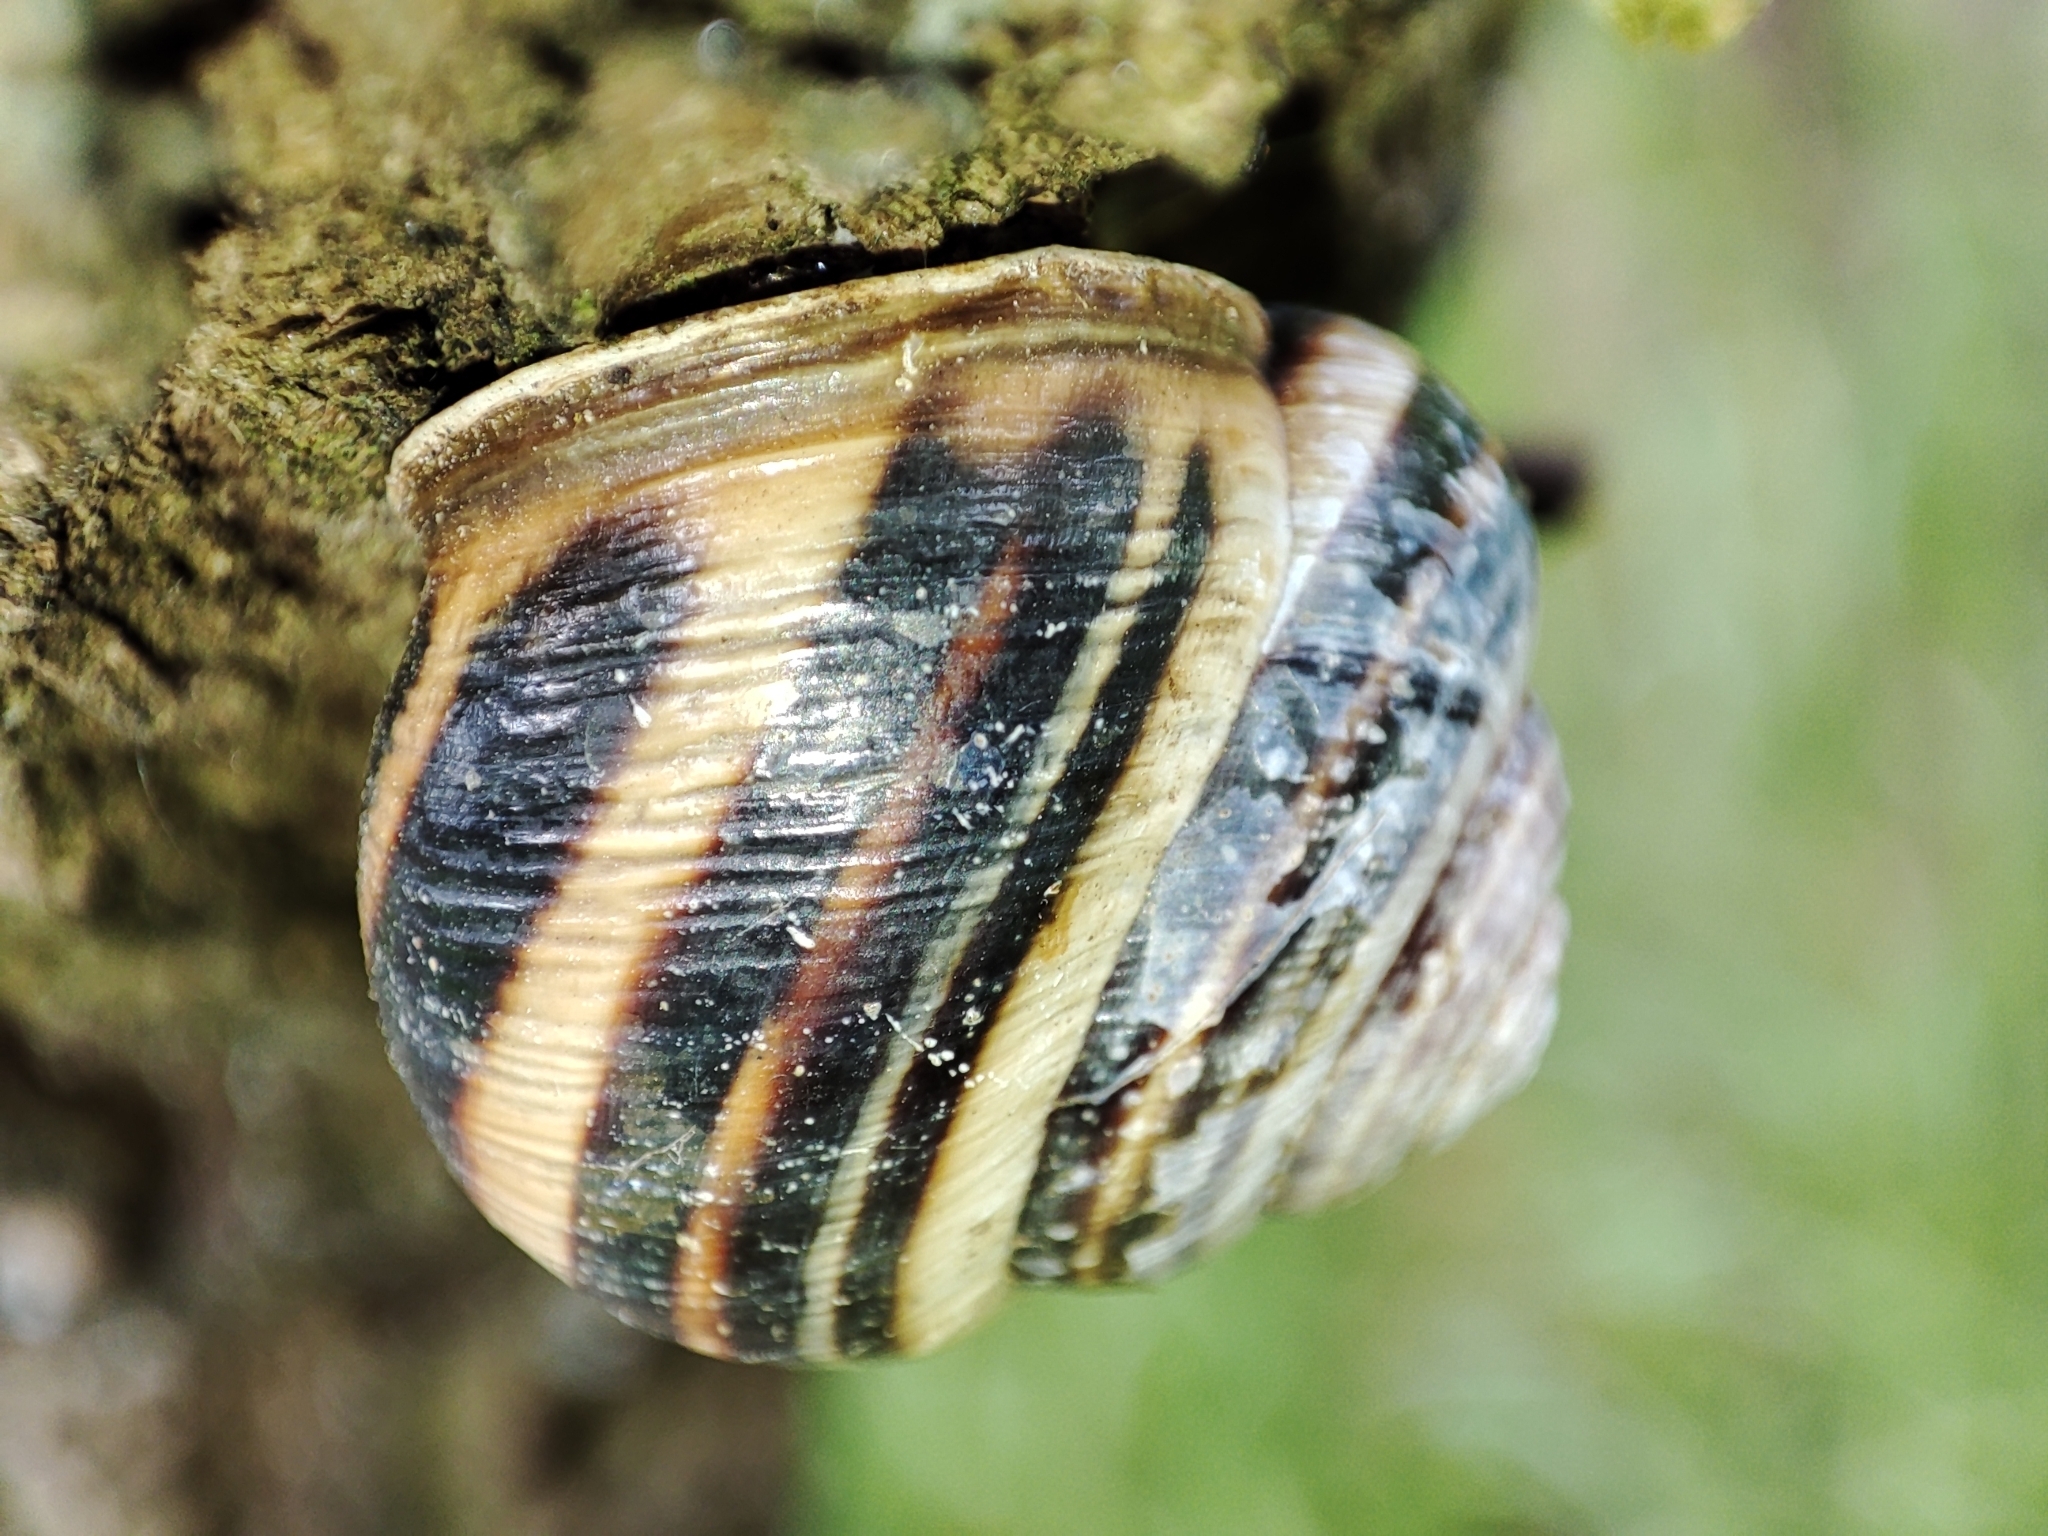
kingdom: Animalia
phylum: Mollusca
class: Gastropoda
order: Stylommatophora
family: Helicidae
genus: Caucasotachea
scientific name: Caucasotachea vindobonensis
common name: European helicid land snail
